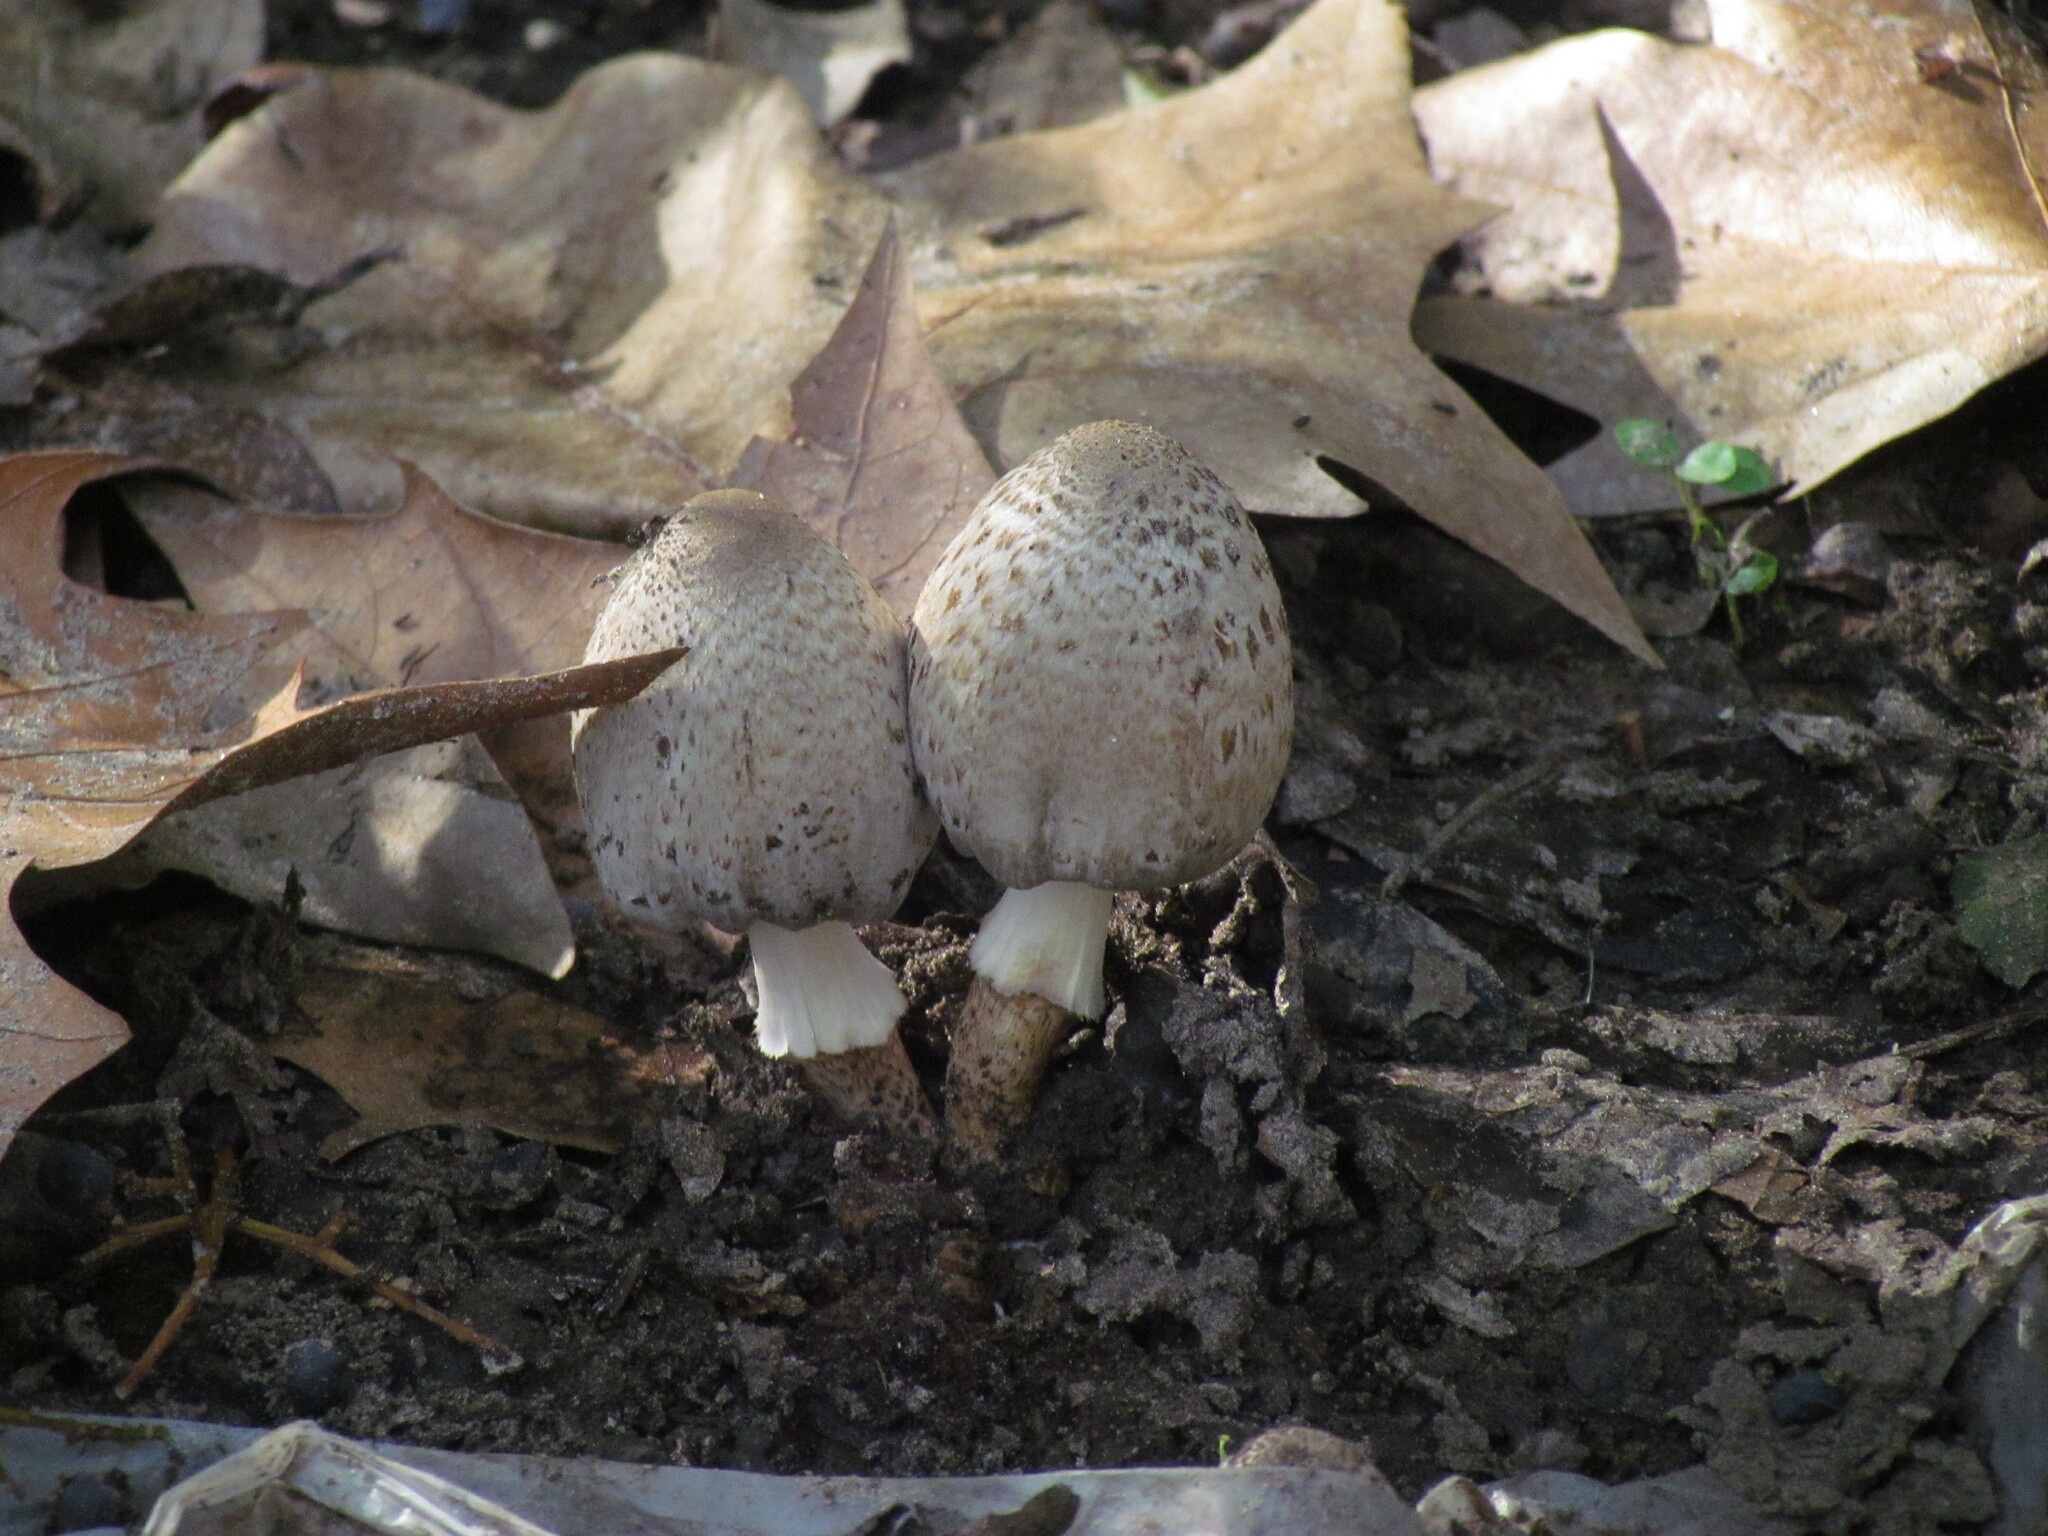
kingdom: Fungi
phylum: Basidiomycota
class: Agaricomycetes
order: Agaricales
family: Psathyrellaceae
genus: Coprinopsis
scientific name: Coprinopsis romagnesiana
